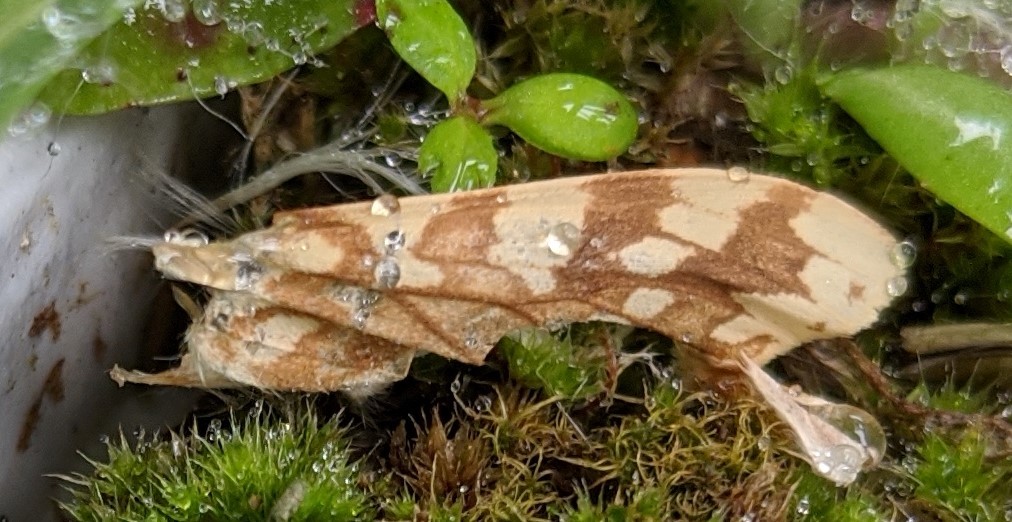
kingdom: Animalia
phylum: Arthropoda
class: Insecta
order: Lepidoptera
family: Erebidae
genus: Lophocampa
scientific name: Lophocampa maculata
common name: Spotted tussock moth
